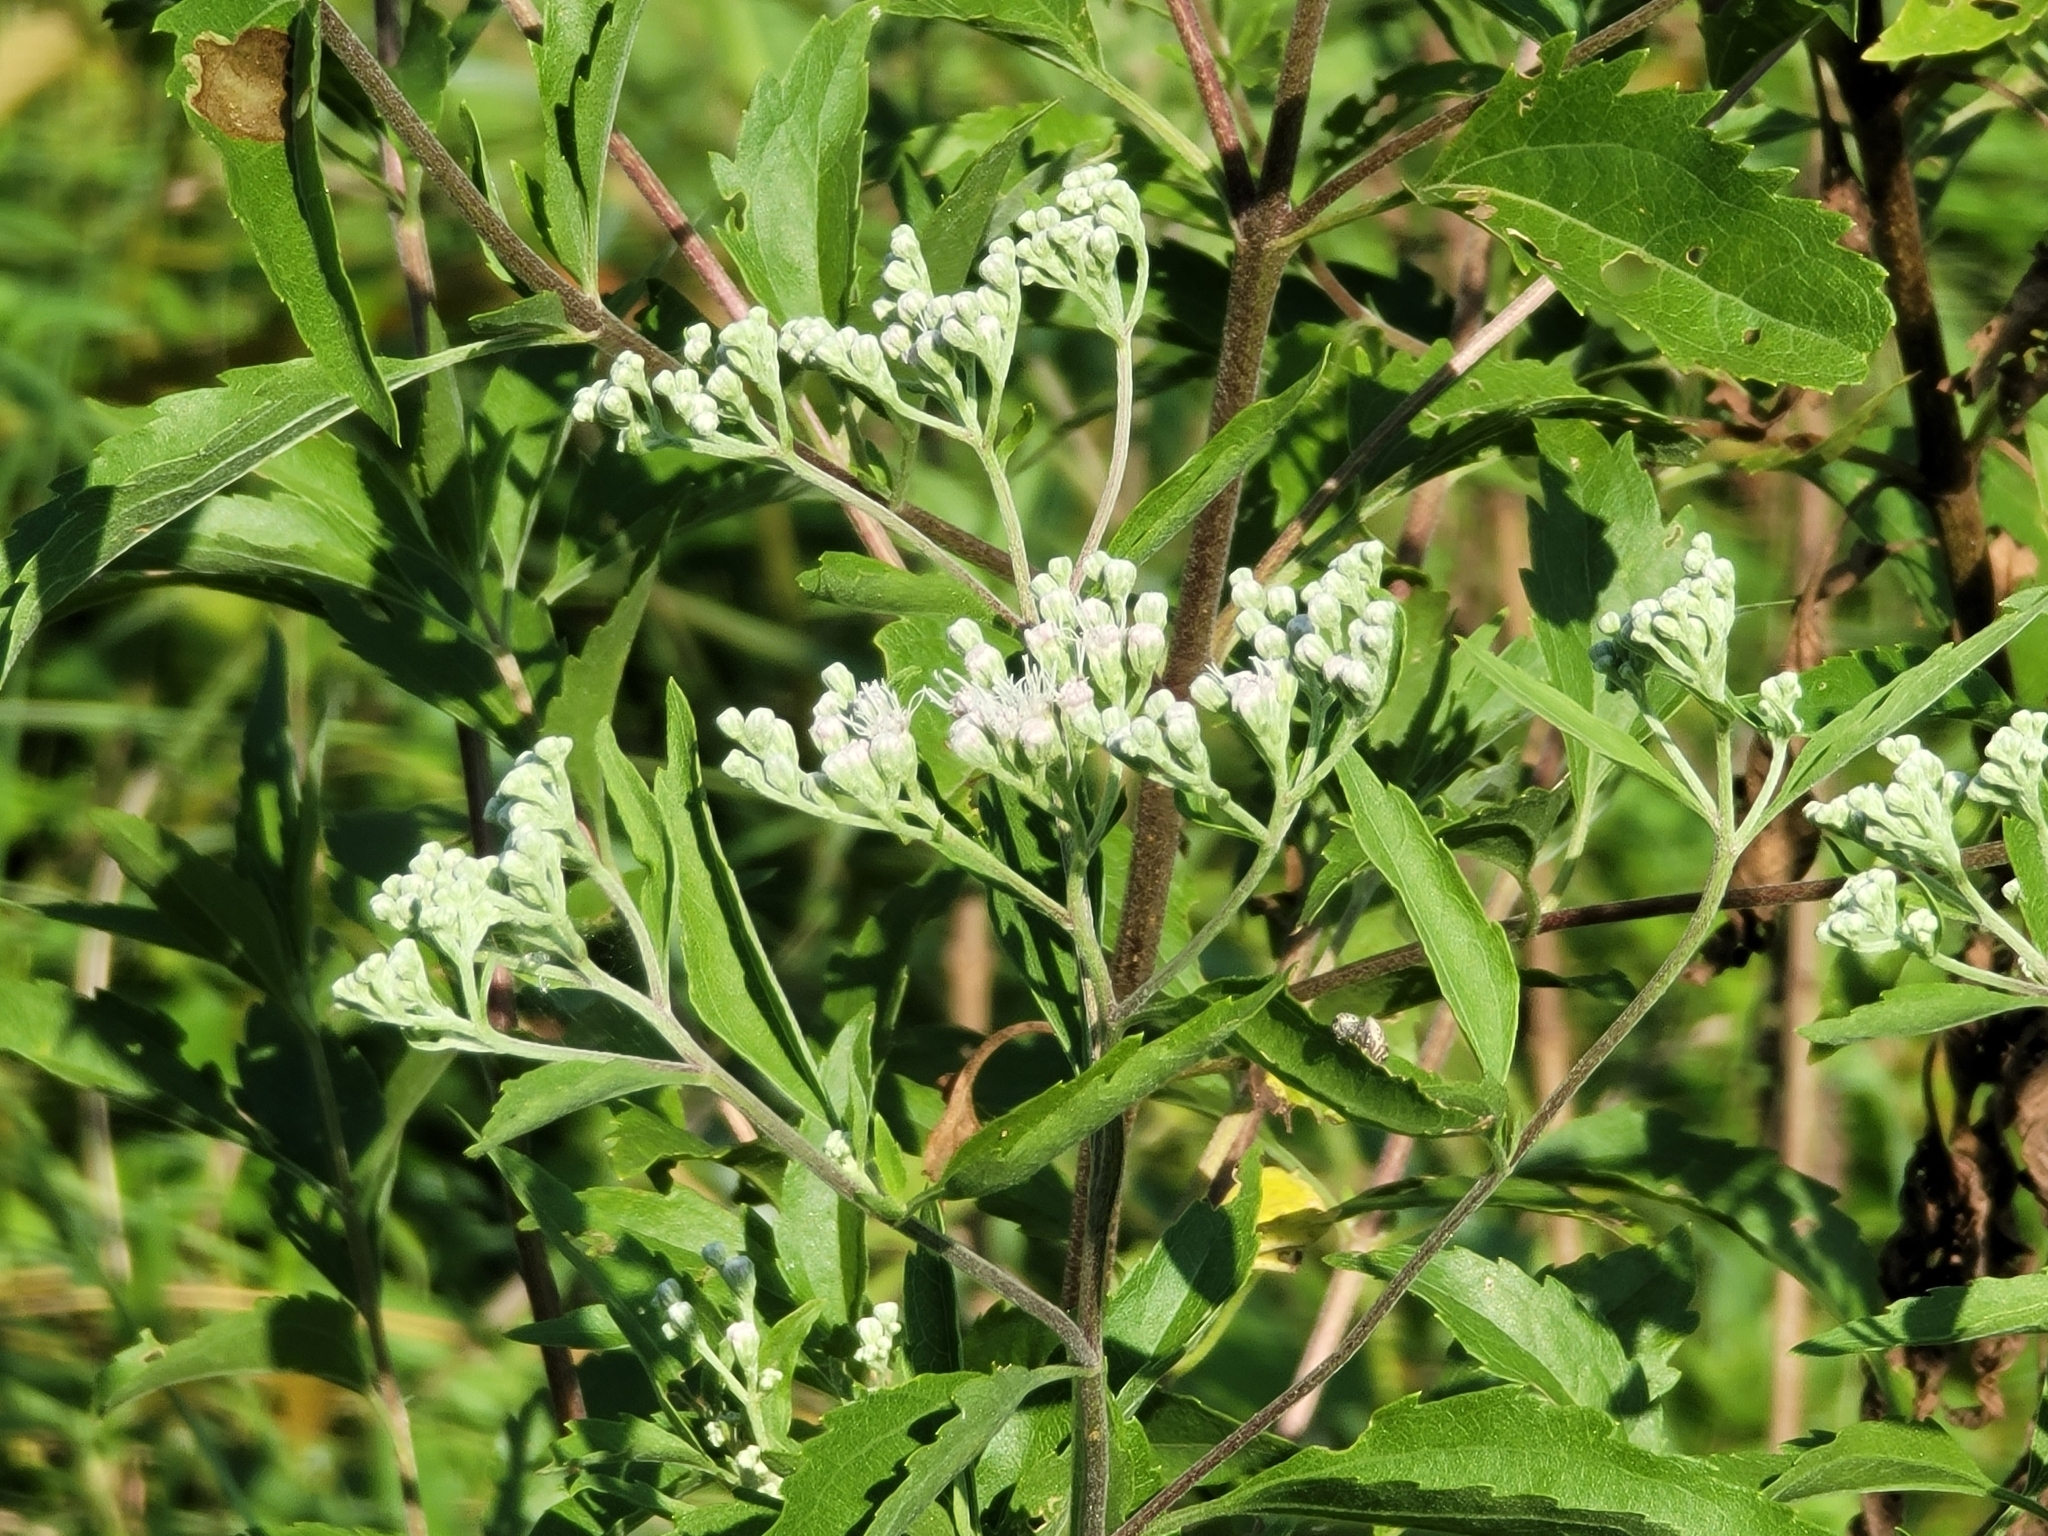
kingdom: Plantae
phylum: Tracheophyta
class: Magnoliopsida
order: Asterales
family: Asteraceae
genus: Eupatorium
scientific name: Eupatorium serotinum
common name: Late boneset
